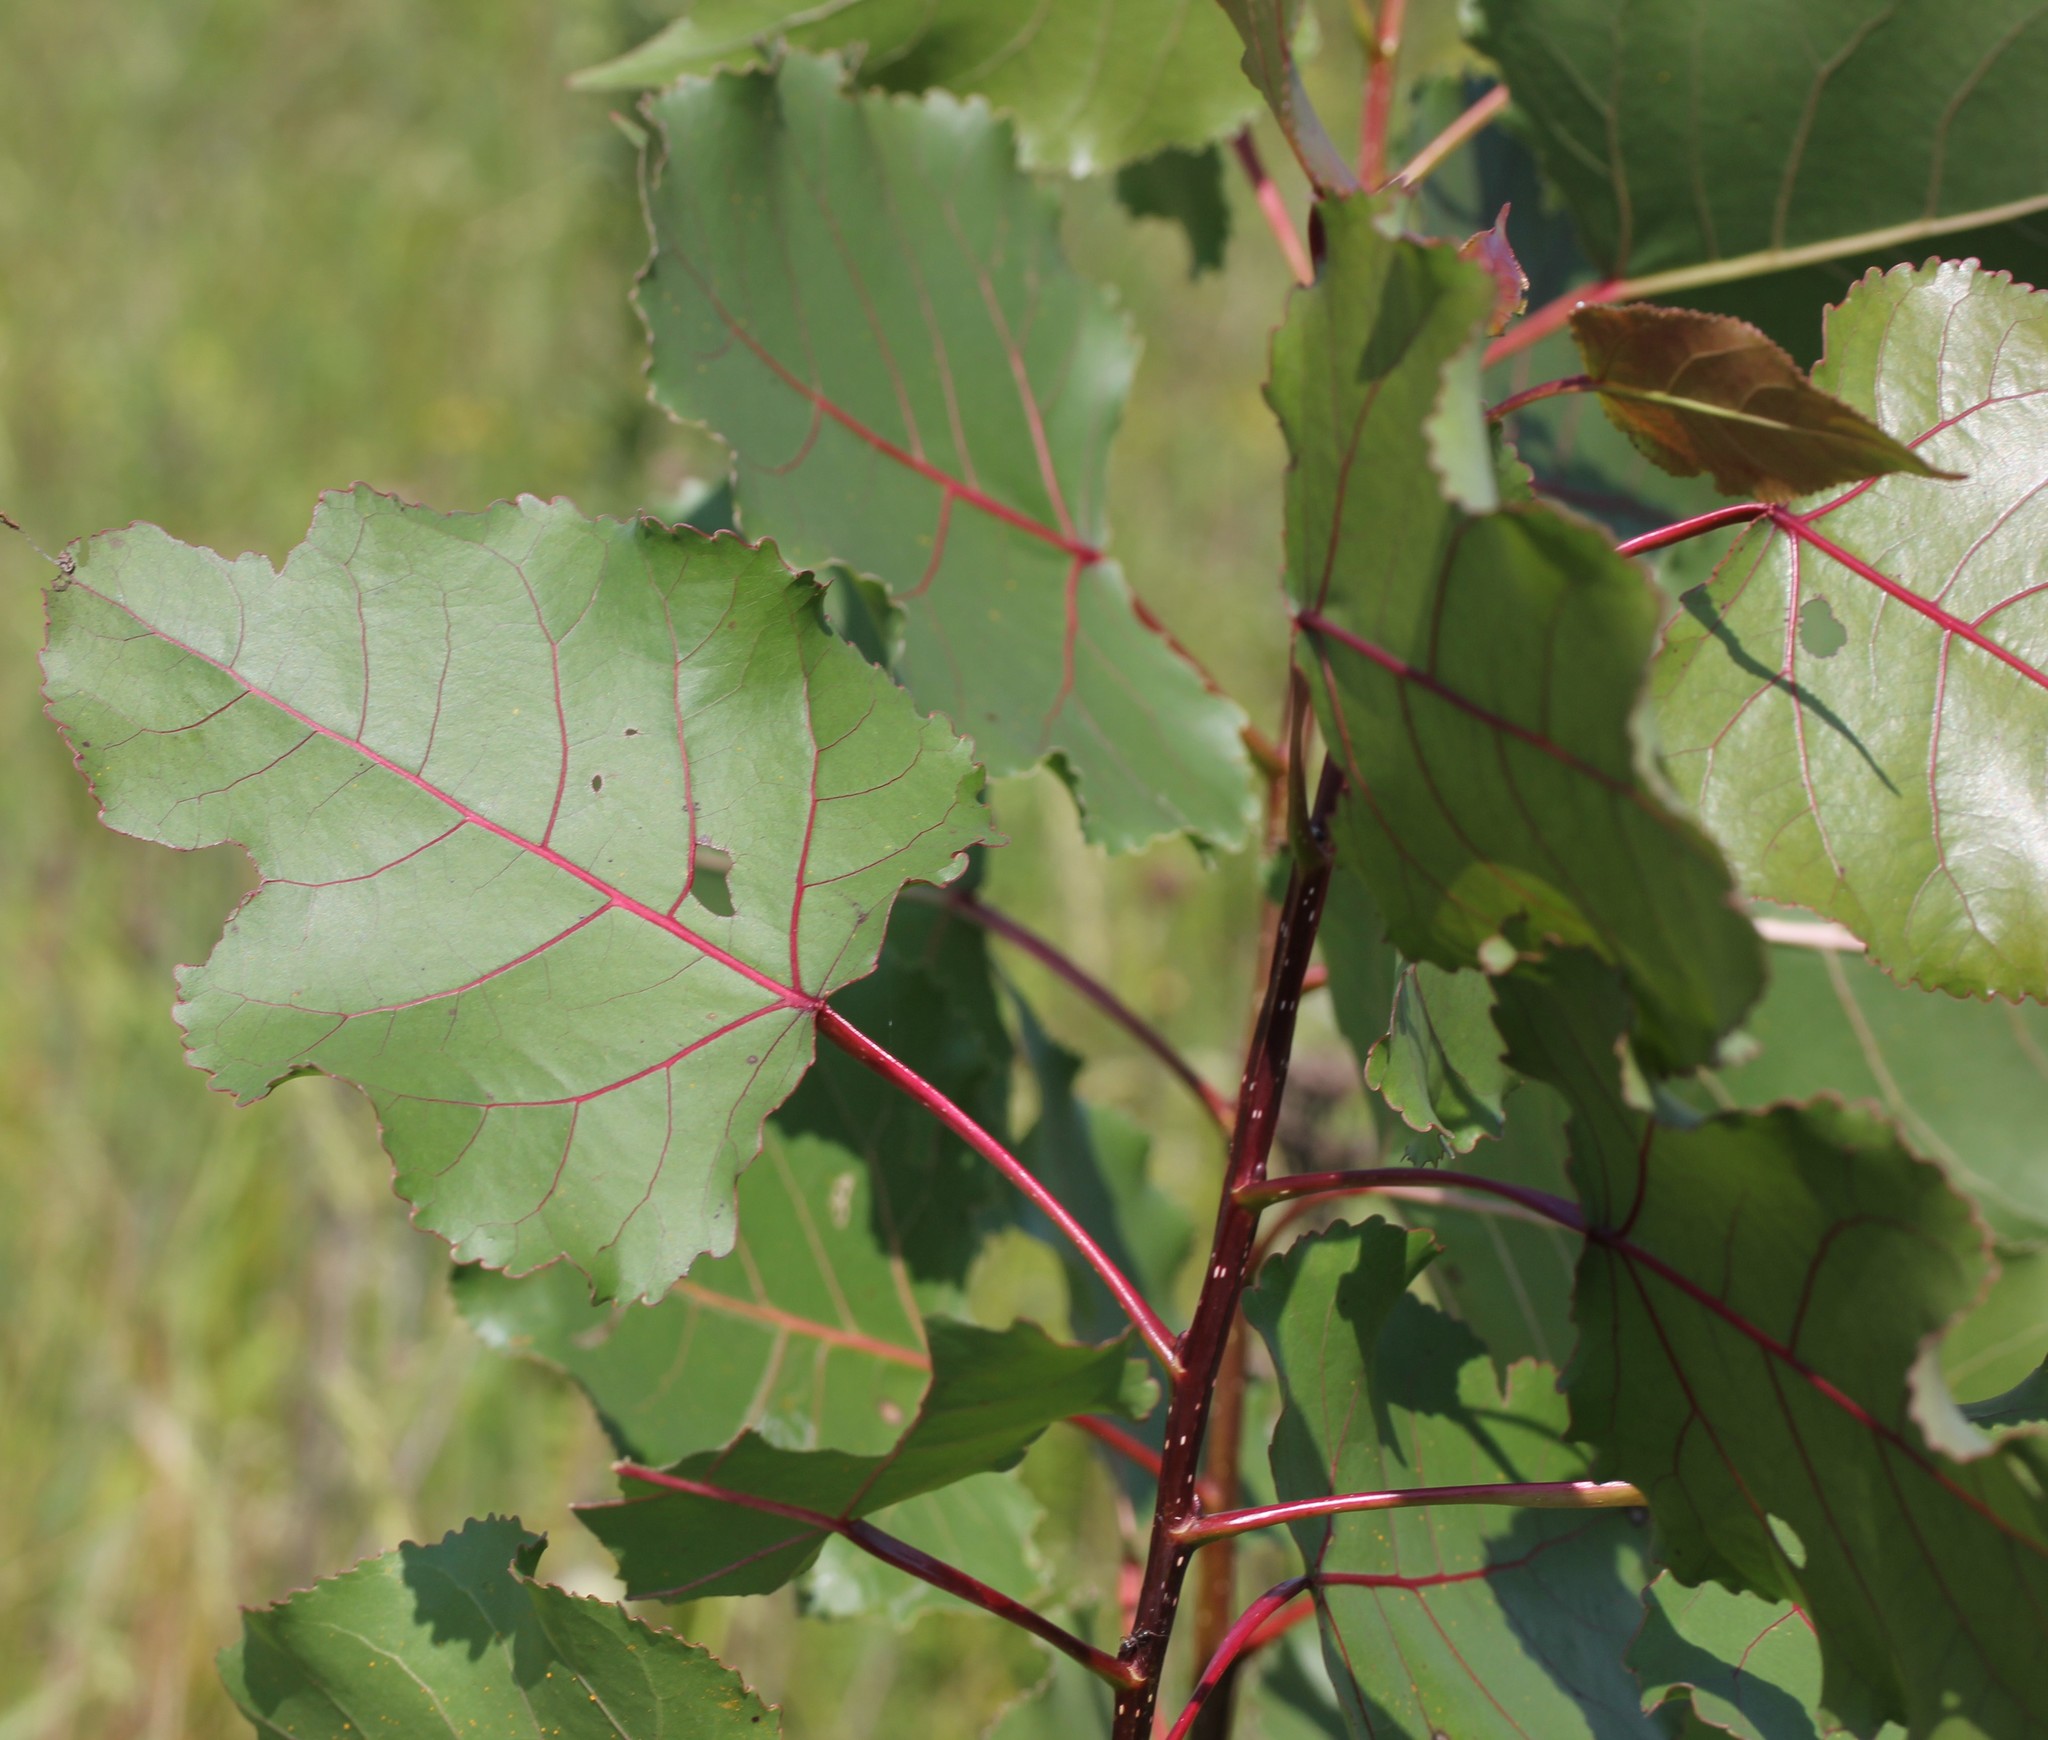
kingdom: Plantae
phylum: Tracheophyta
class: Magnoliopsida
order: Malpighiales
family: Salicaceae
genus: Populus
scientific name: Populus deltoides
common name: Eastern cottonwood
